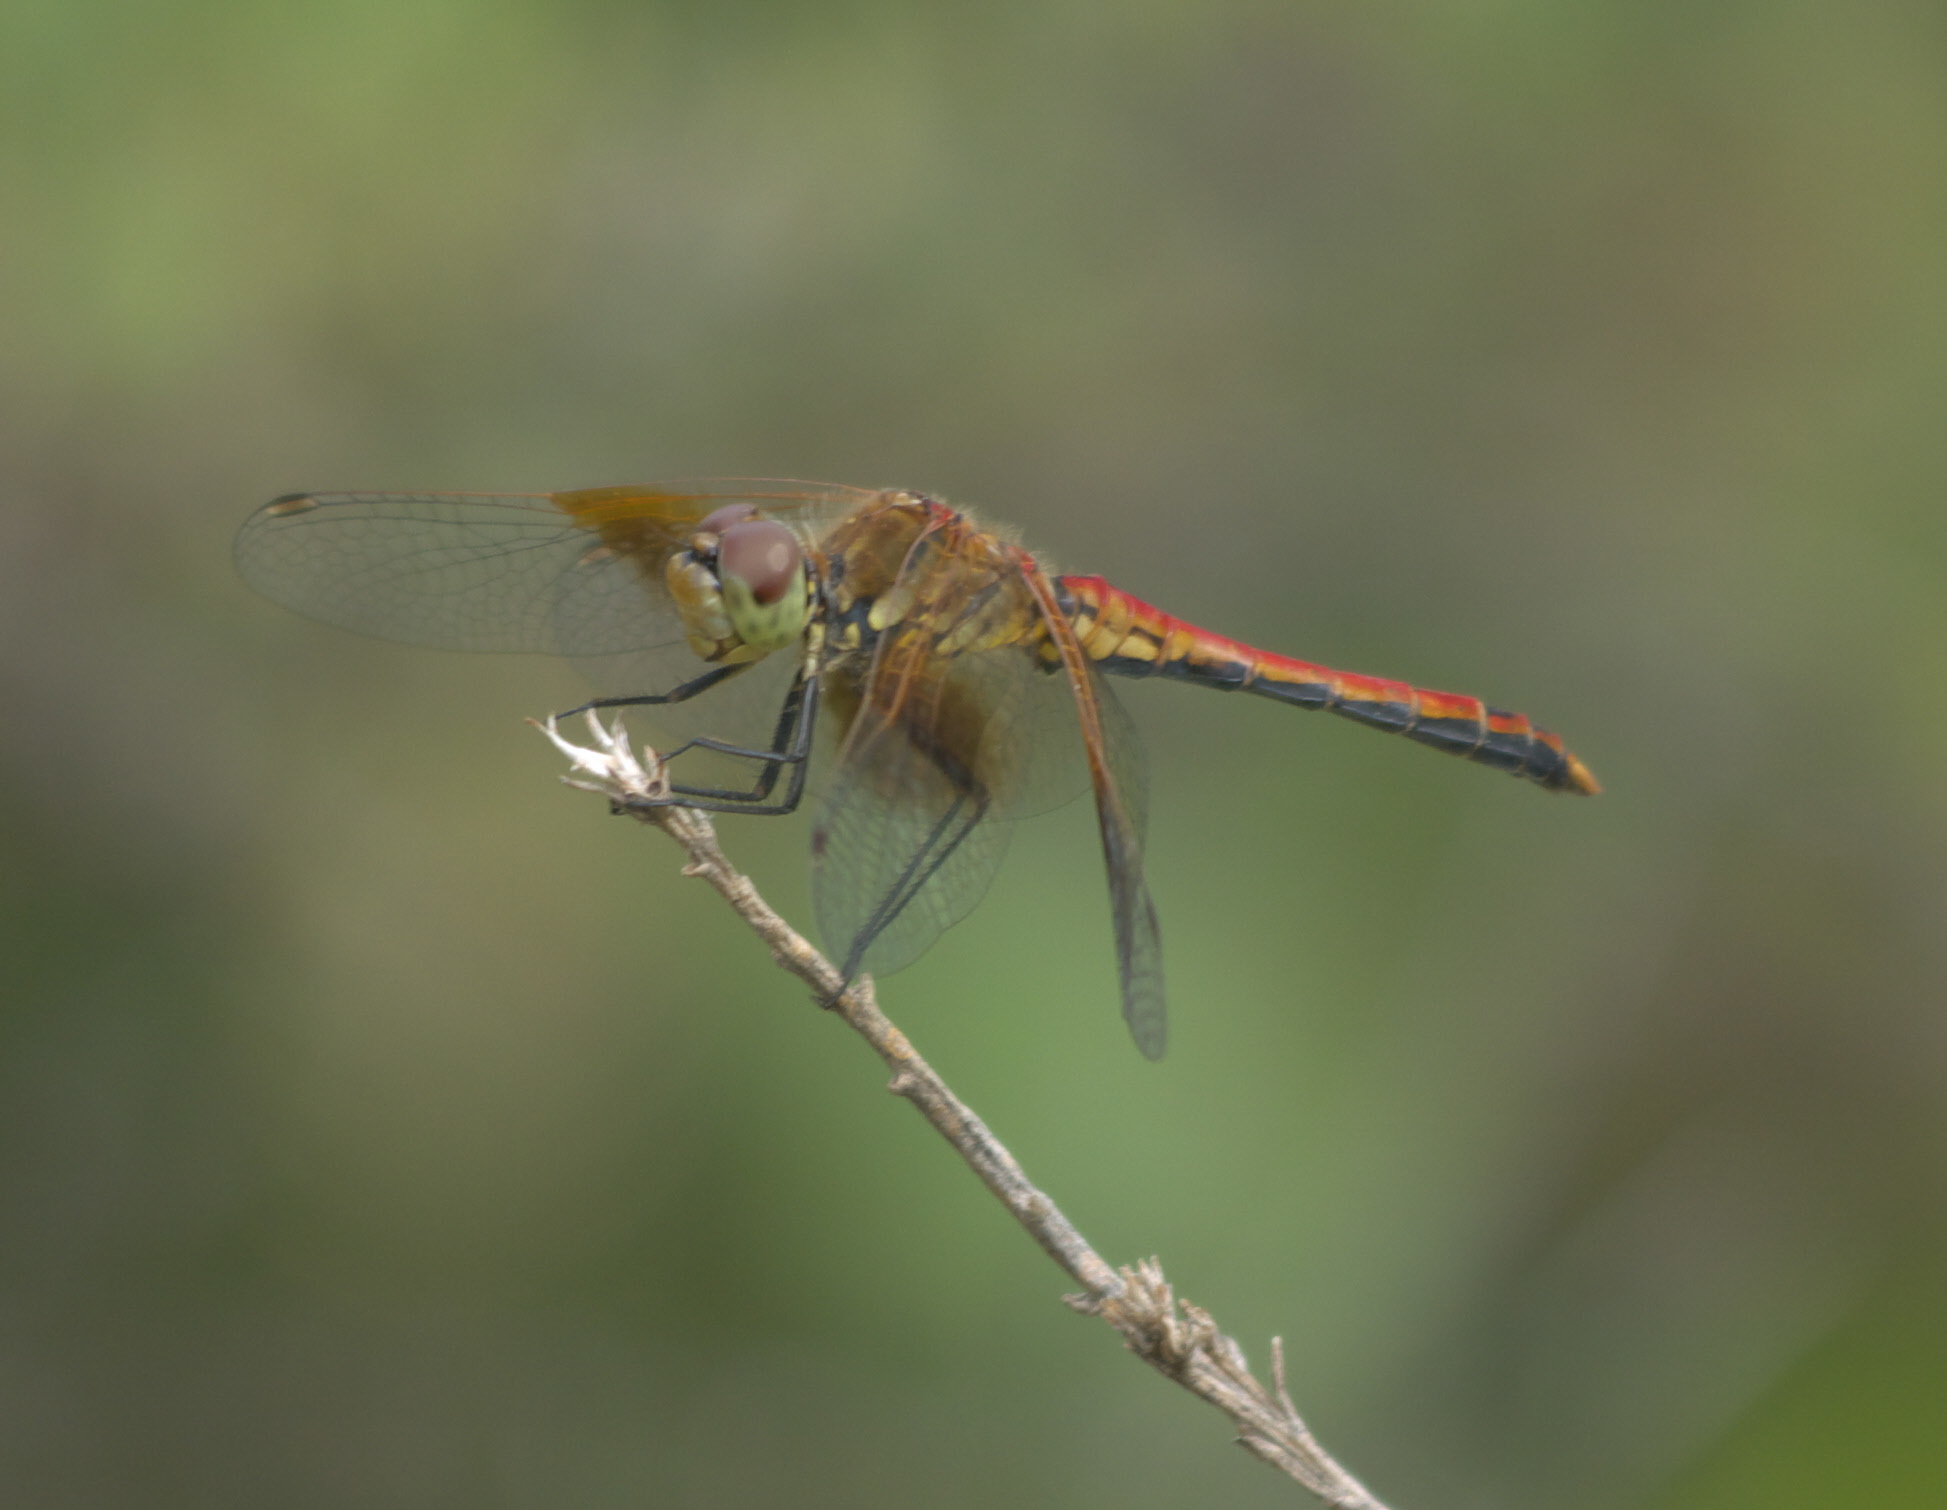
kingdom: Animalia
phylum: Arthropoda
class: Insecta
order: Odonata
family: Libellulidae
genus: Sympetrum
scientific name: Sympetrum semicinctum
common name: Band-winged meadowhawk
